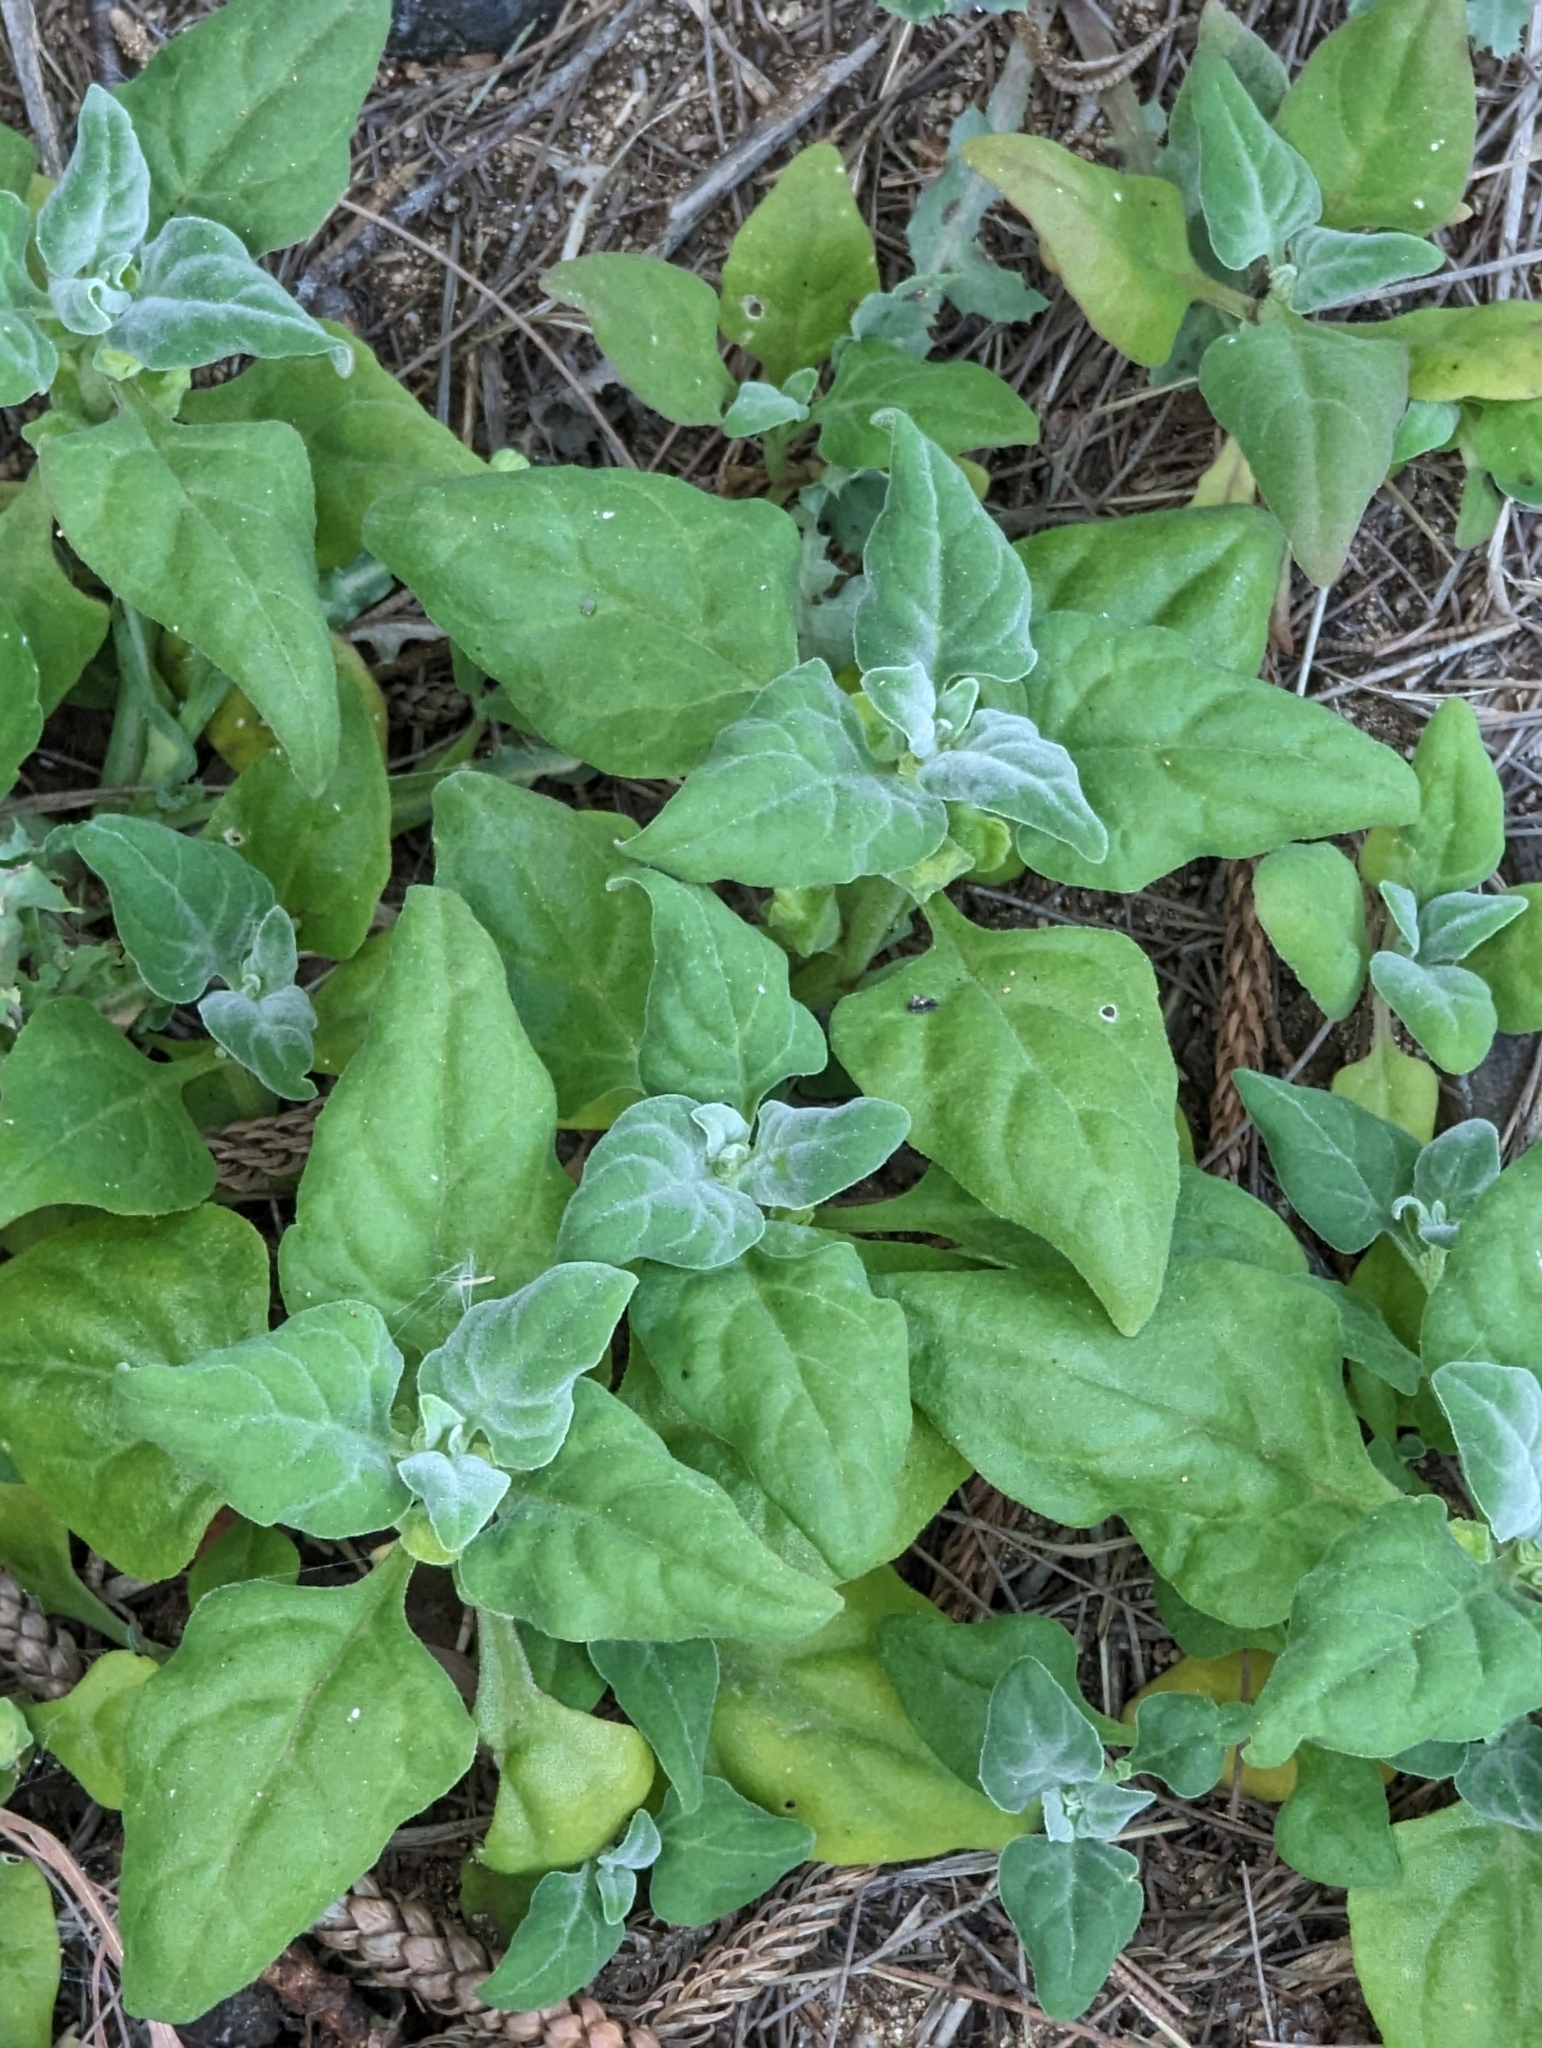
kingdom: Plantae
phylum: Tracheophyta
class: Magnoliopsida
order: Caryophyllales
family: Aizoaceae
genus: Tetragonia
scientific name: Tetragonia tetragonoides
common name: New zealand-spinach
